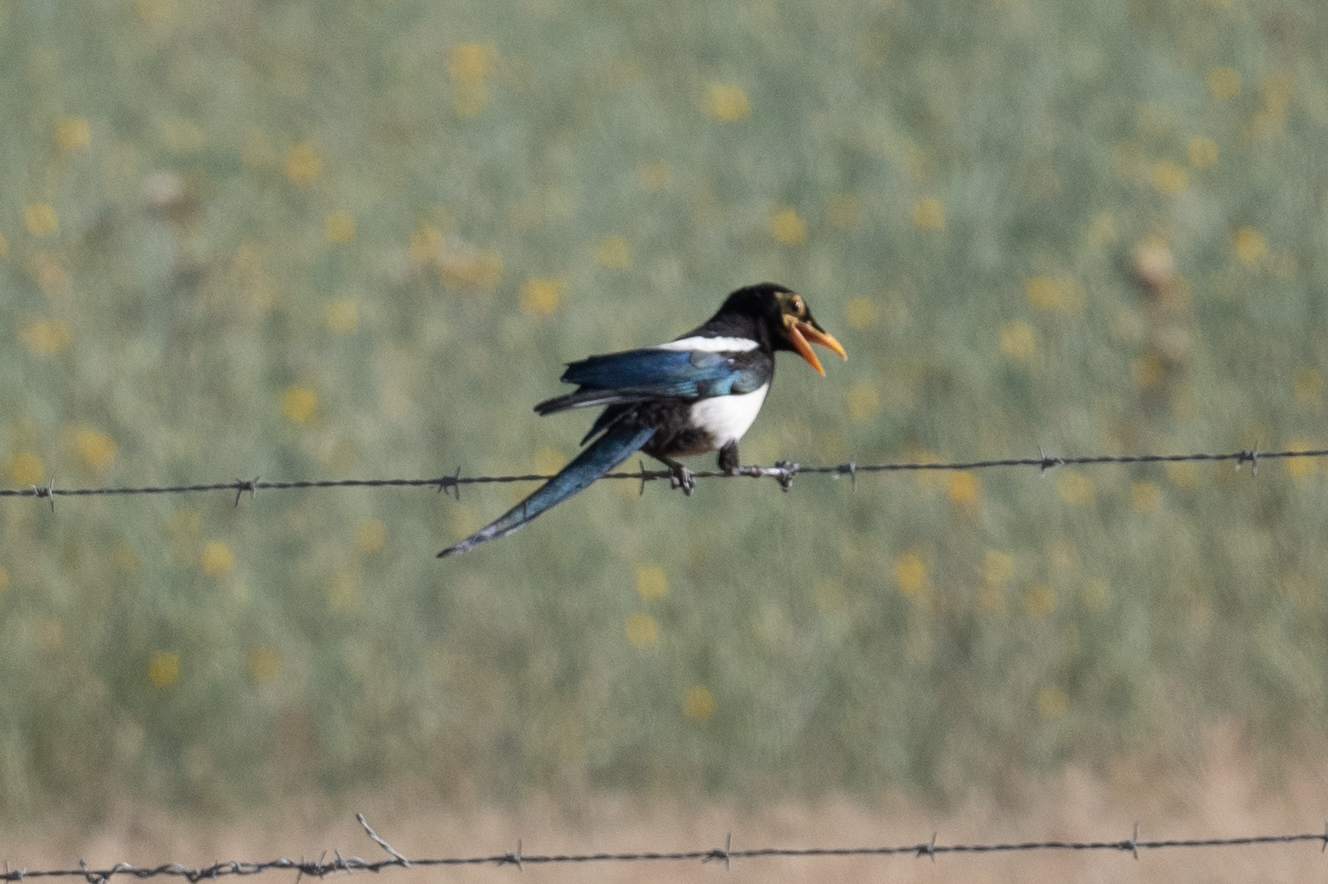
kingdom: Animalia
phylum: Chordata
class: Aves
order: Passeriformes
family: Corvidae
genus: Pica
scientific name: Pica nuttalli
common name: Yellow-billed magpie
